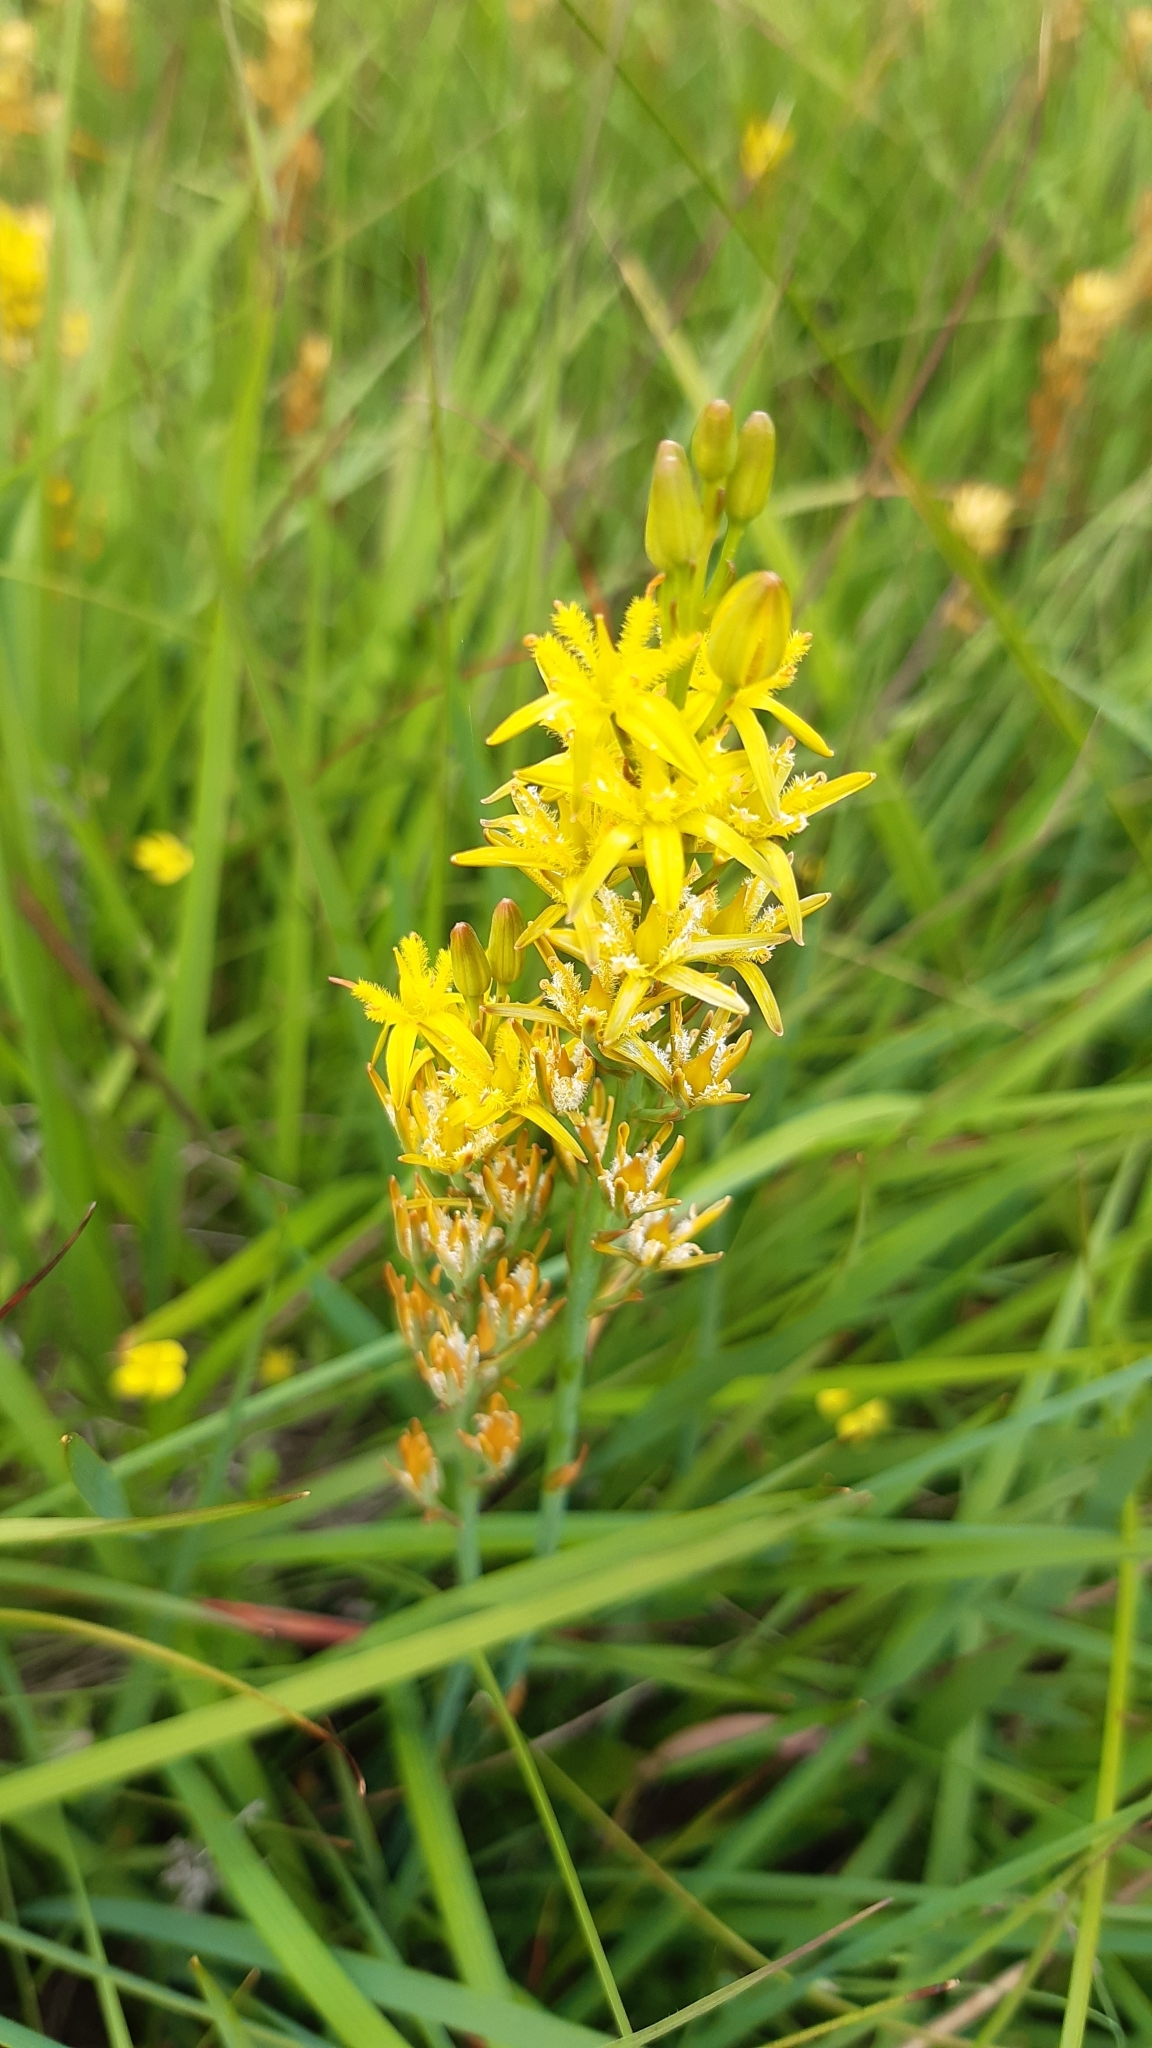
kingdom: Plantae
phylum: Tracheophyta
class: Liliopsida
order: Dioscoreales
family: Nartheciaceae
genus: Narthecium
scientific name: Narthecium ossifragum
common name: Bog asphodel
